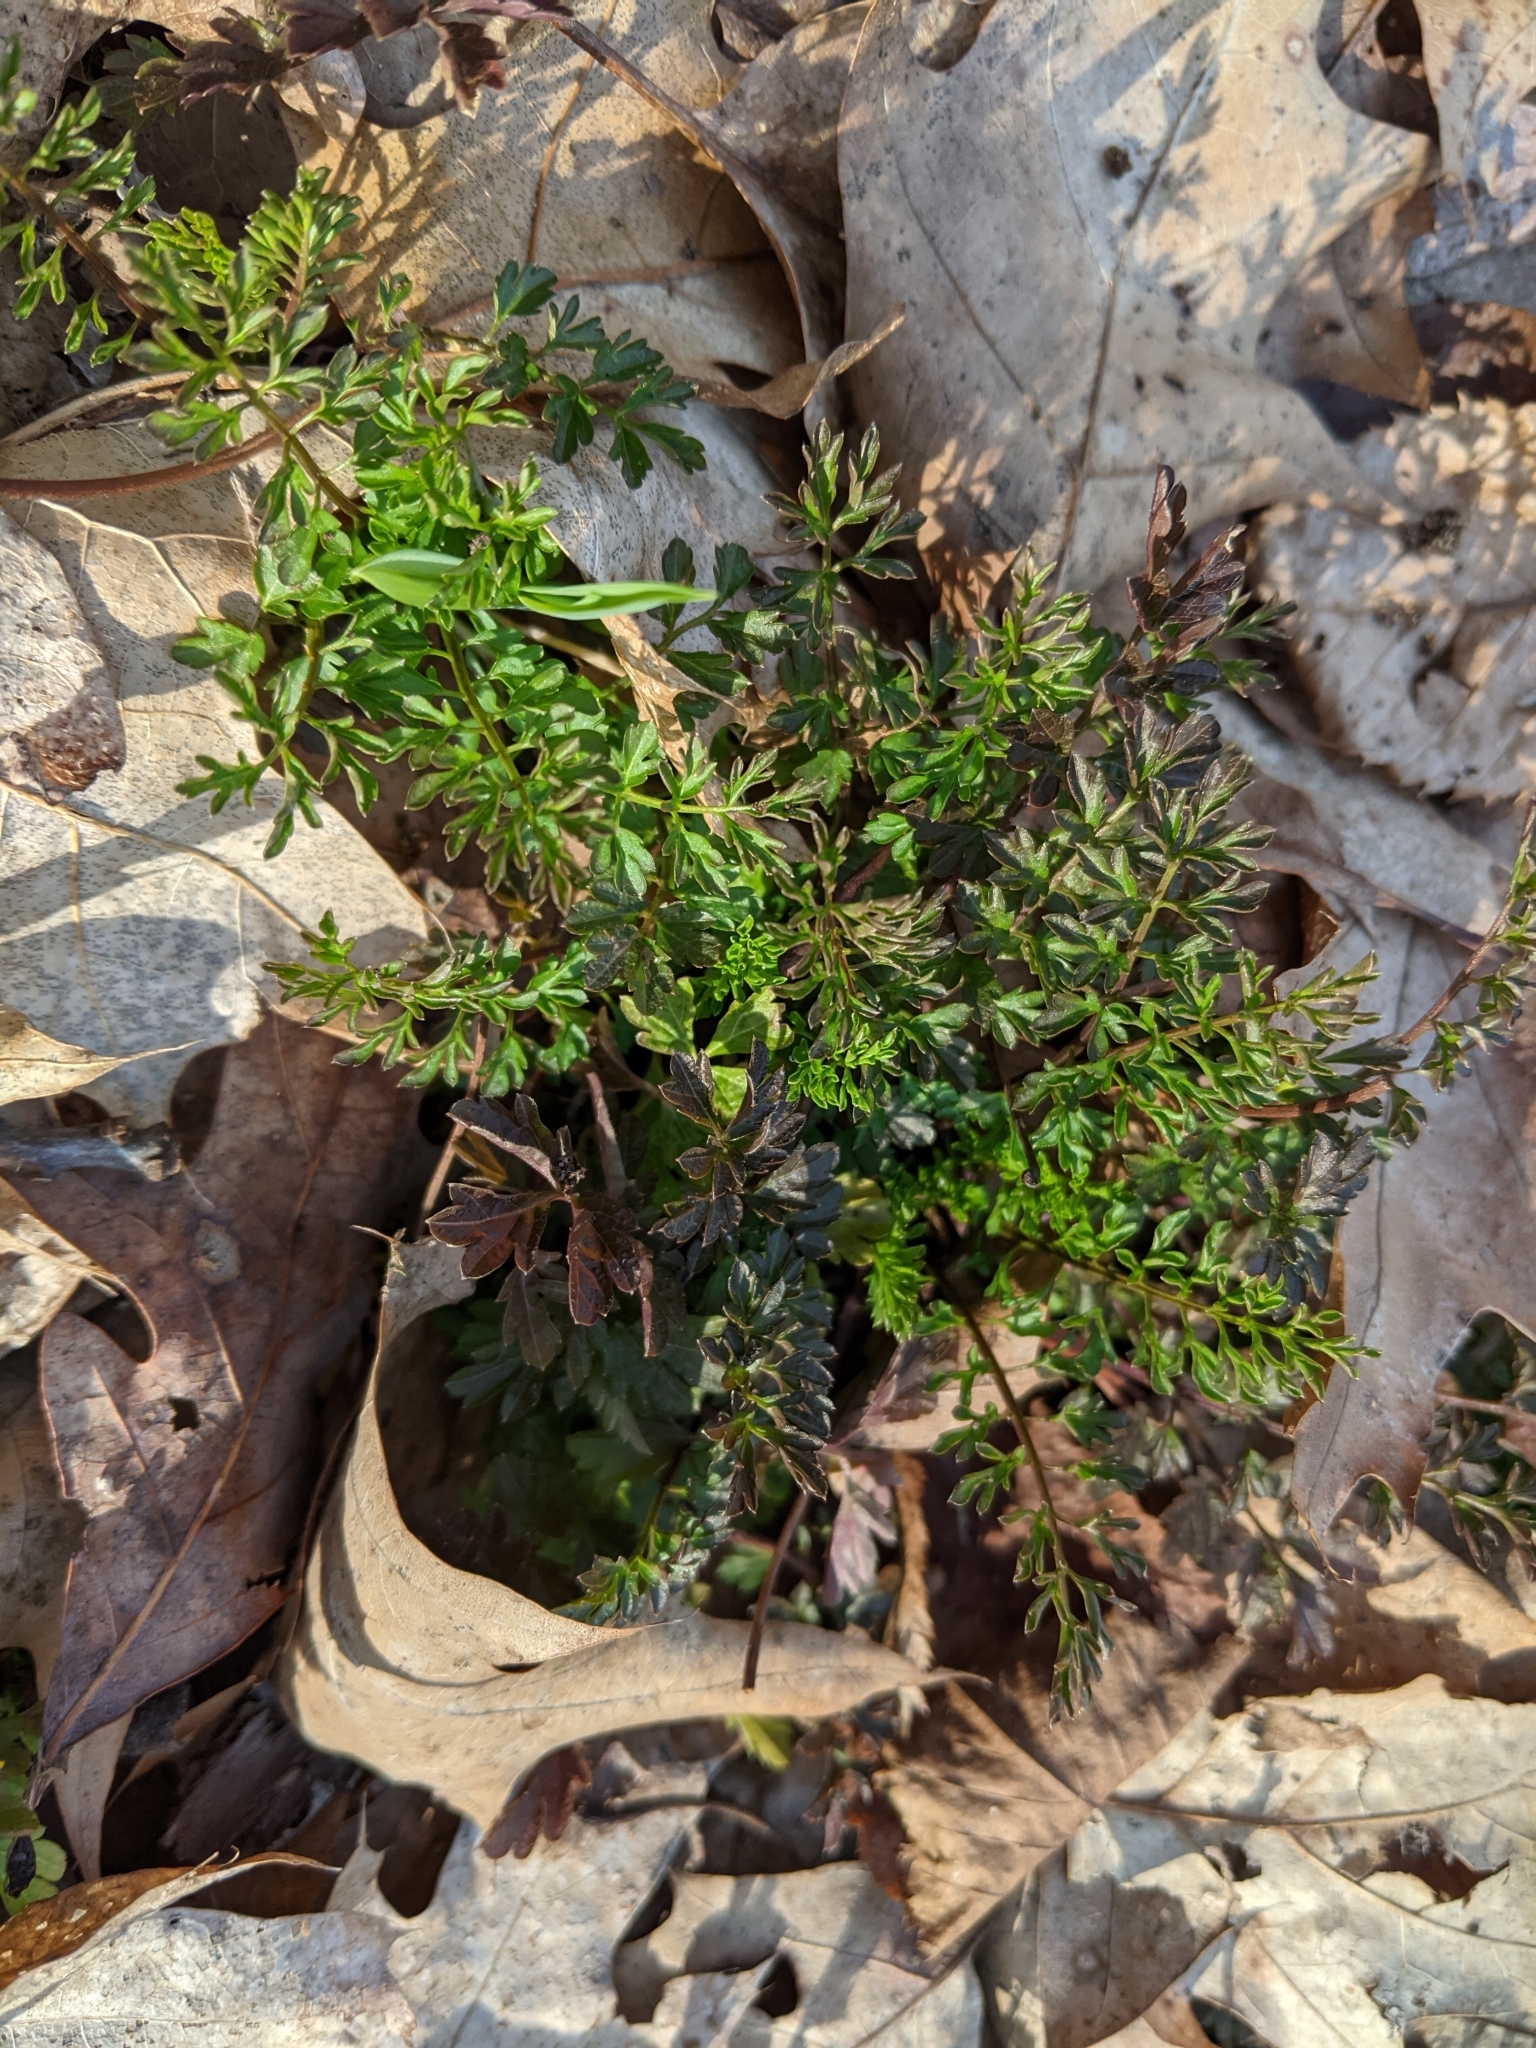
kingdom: Plantae
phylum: Tracheophyta
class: Magnoliopsida
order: Brassicales
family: Brassicaceae
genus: Cardamine
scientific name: Cardamine impatiens
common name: Narrow-leaved bitter-cress
